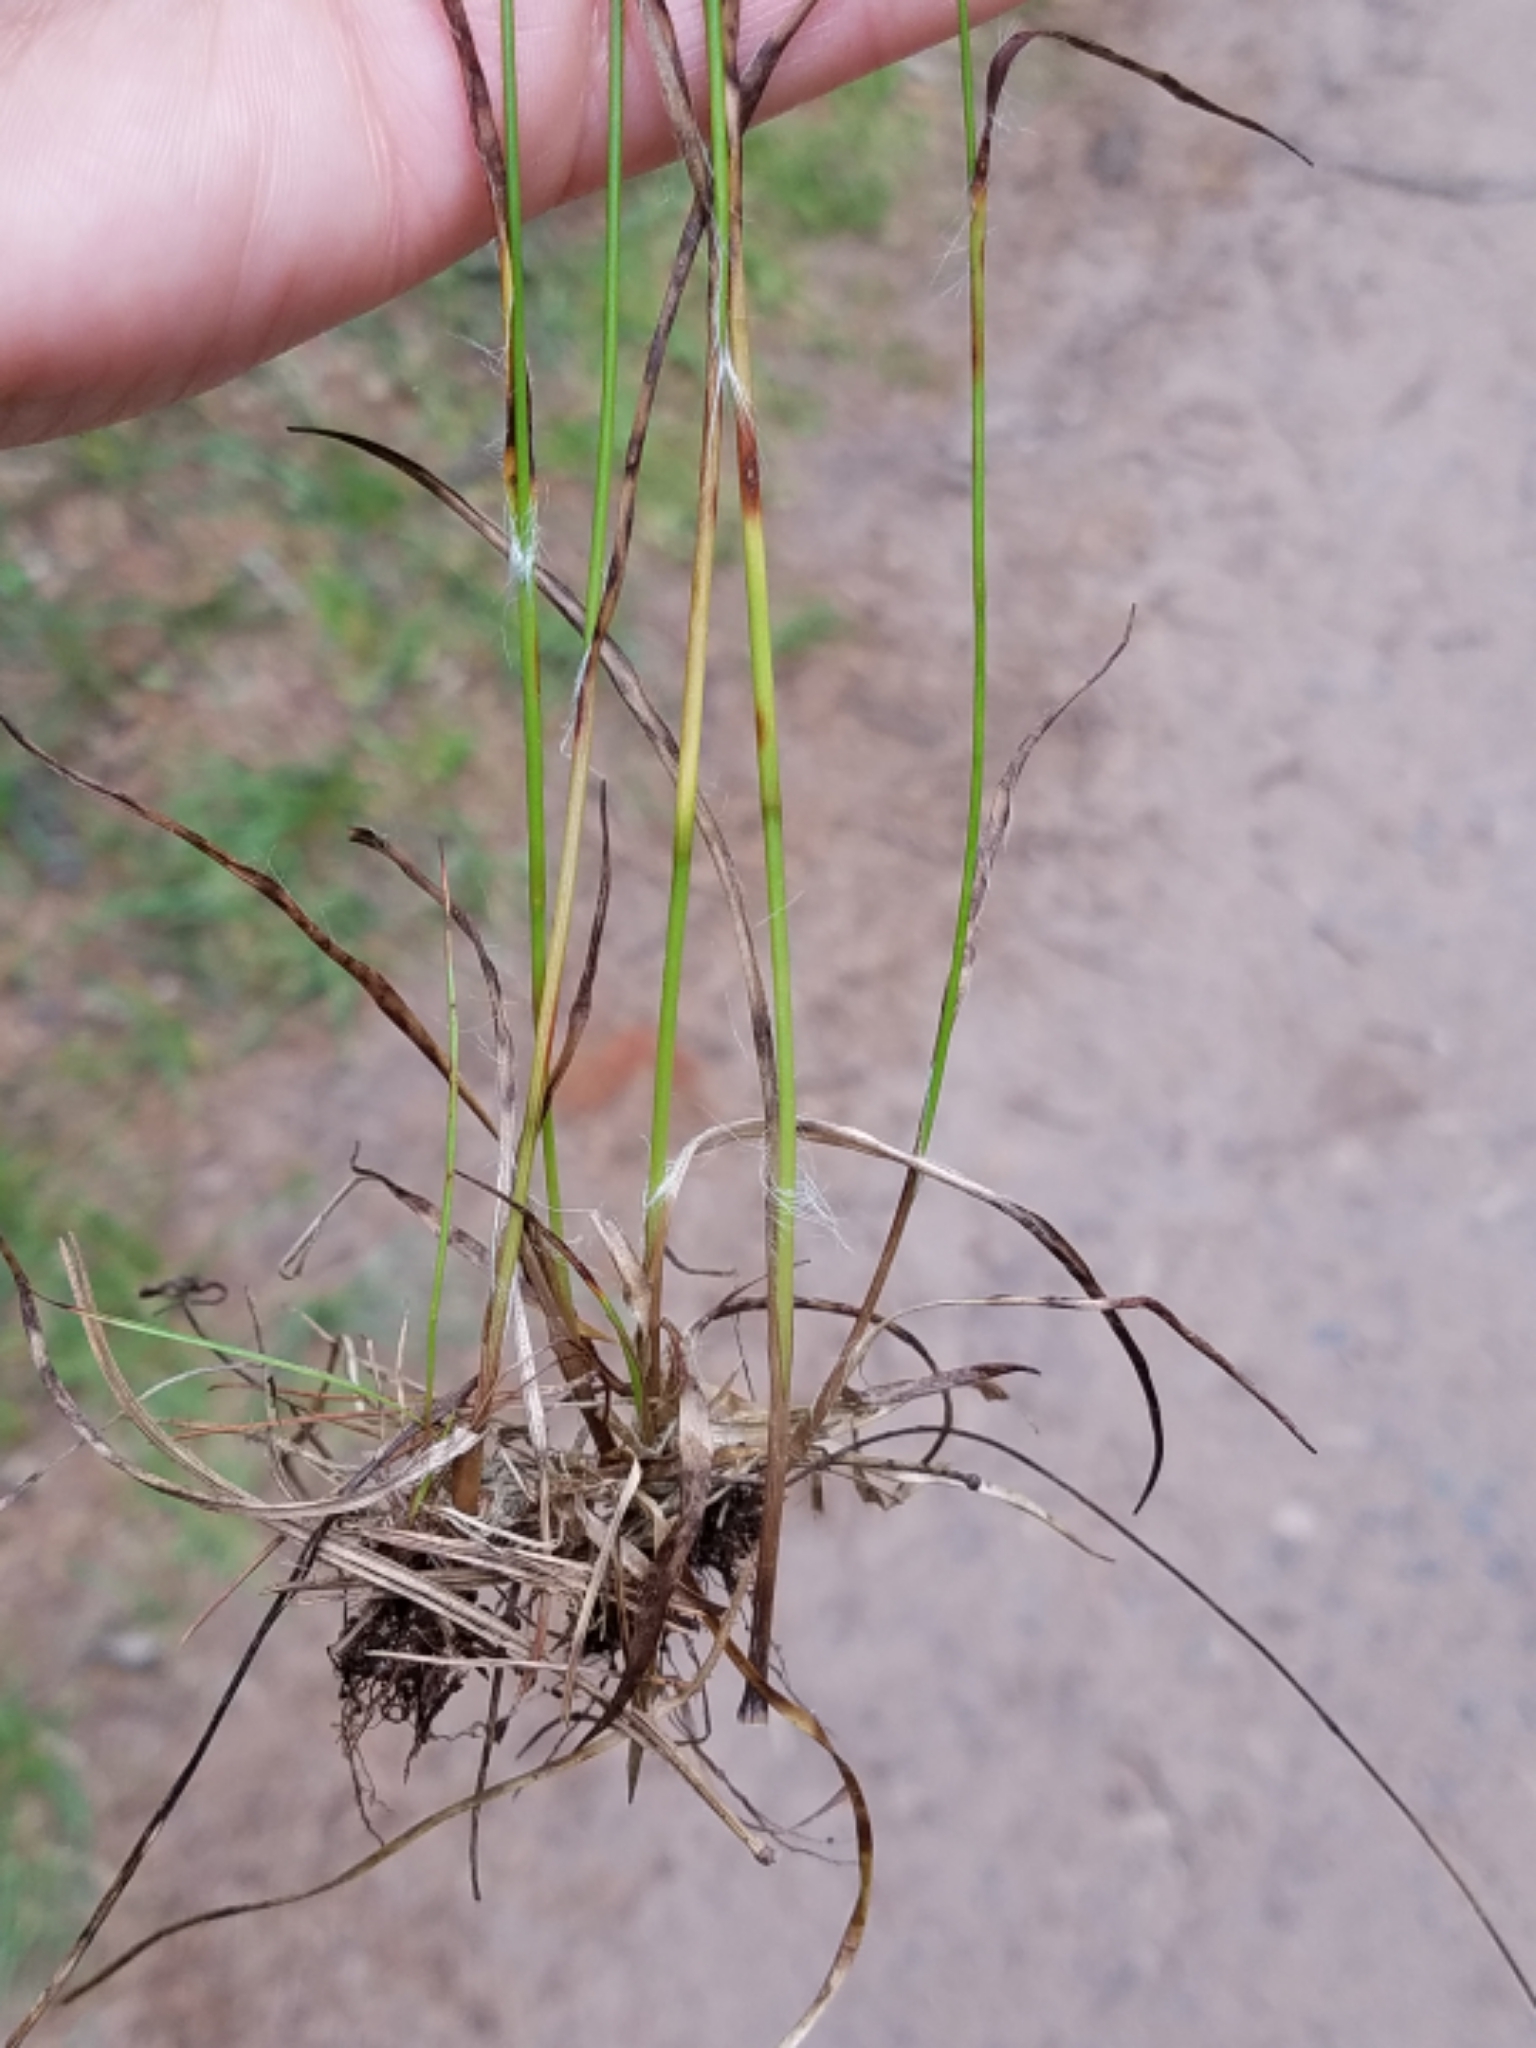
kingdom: Plantae
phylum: Tracheophyta
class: Liliopsida
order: Poales
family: Juncaceae
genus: Luzula
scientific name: Luzula multiflora
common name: Heath wood-rush
